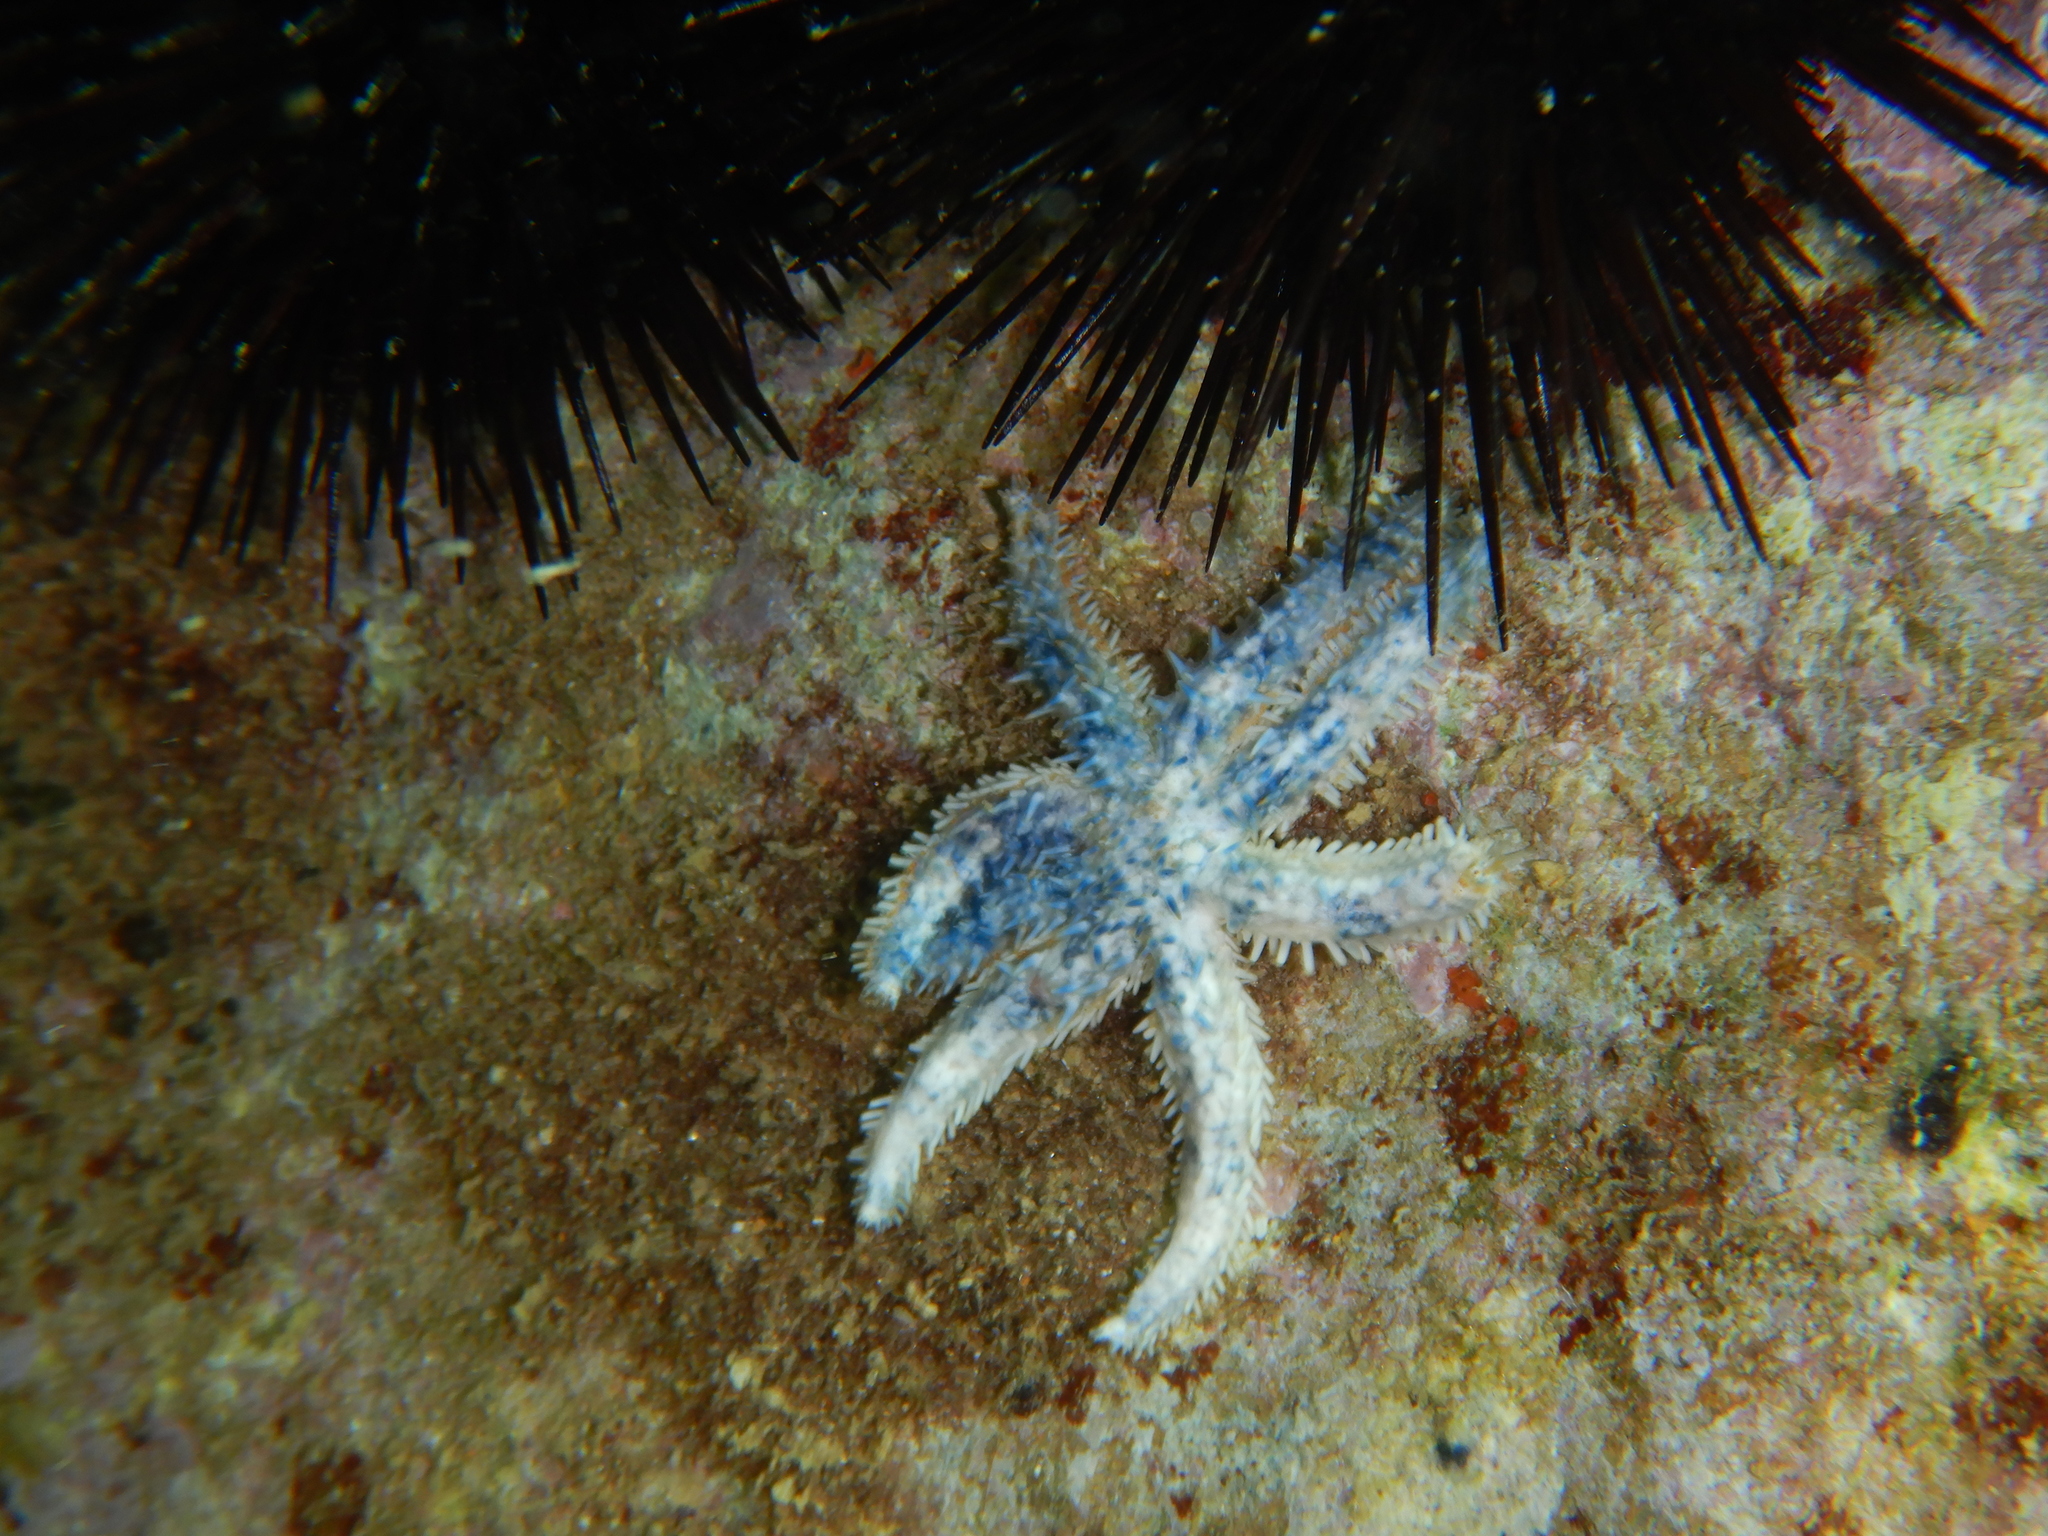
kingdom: Animalia
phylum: Echinodermata
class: Asteroidea
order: Forcipulatida
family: Asteriidae
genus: Coscinasterias
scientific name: Coscinasterias tenuispina
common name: Blue spiny starfish
